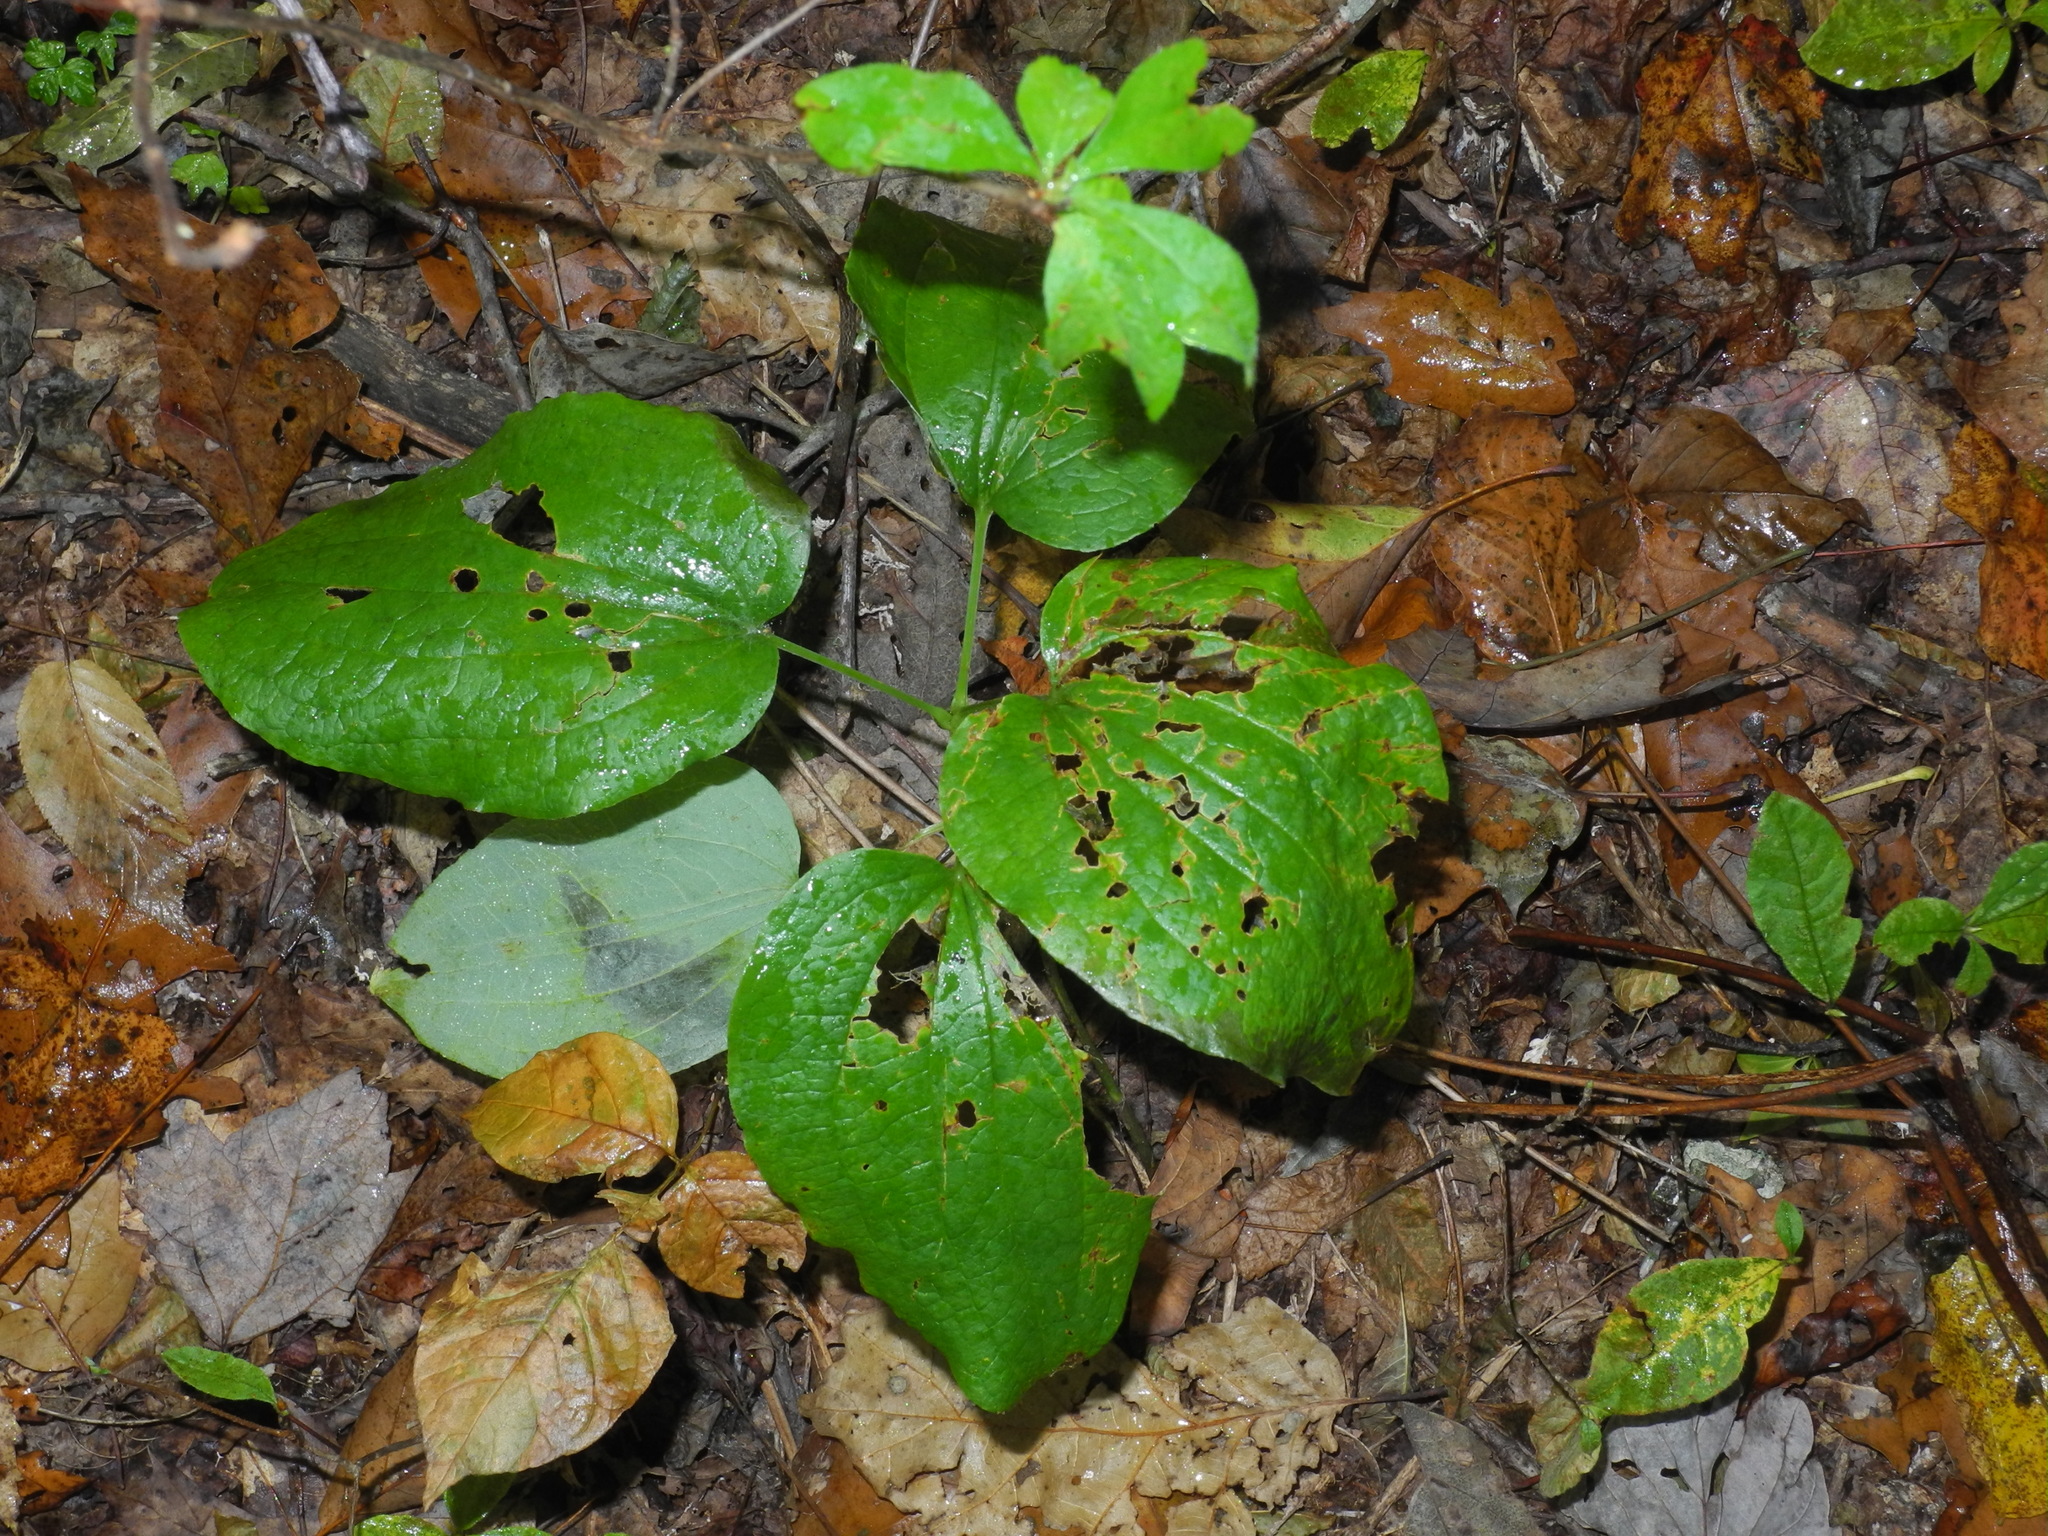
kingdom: Plantae
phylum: Tracheophyta
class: Liliopsida
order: Liliales
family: Smilacaceae
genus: Smilax
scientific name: Smilax hugeri
